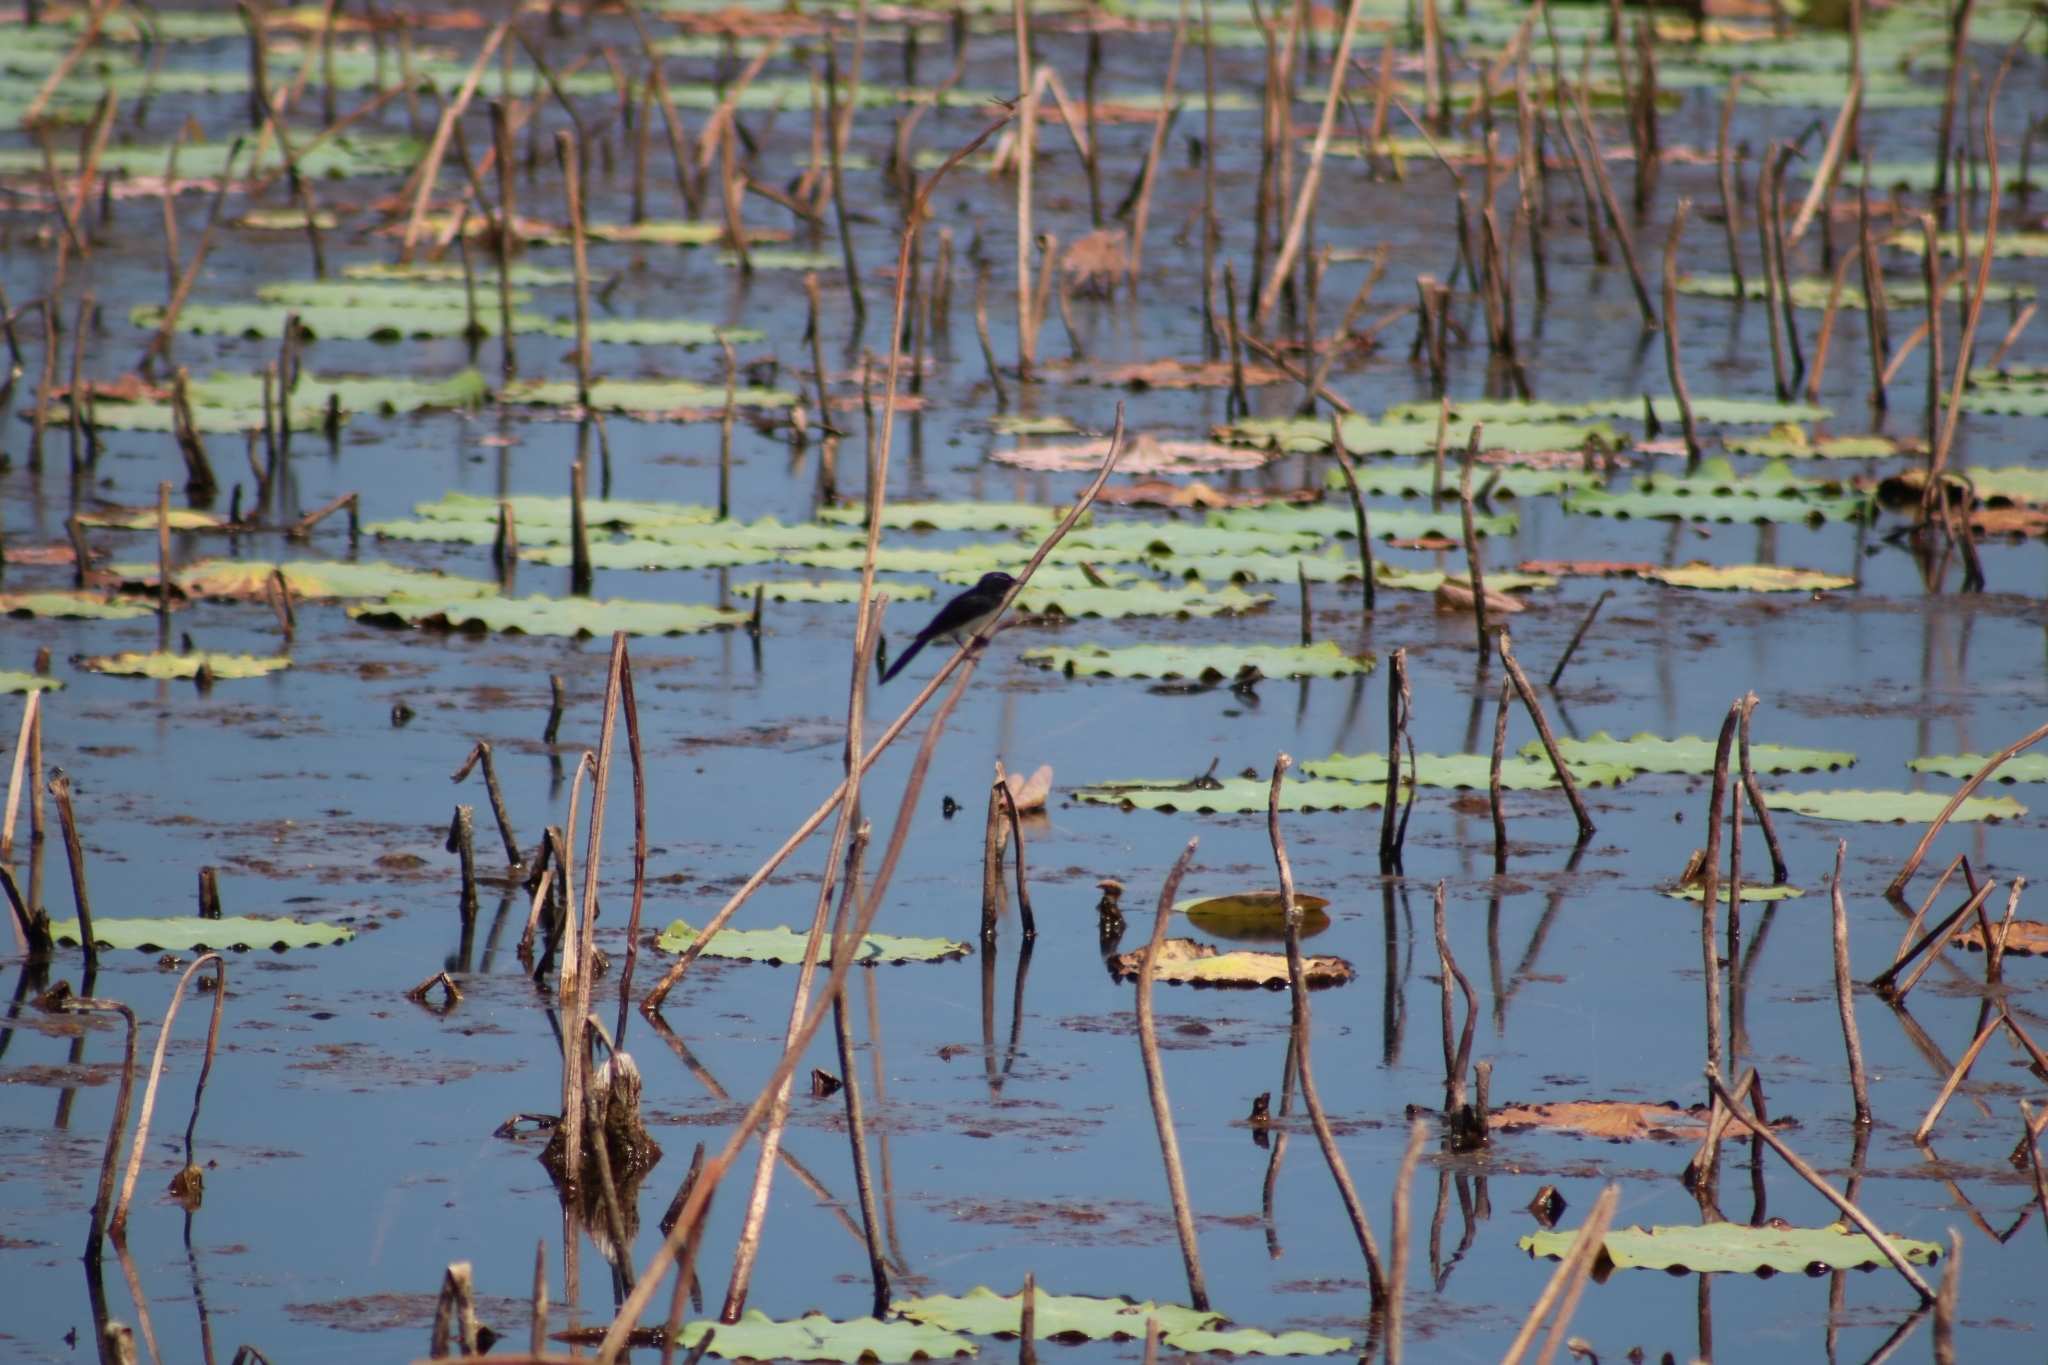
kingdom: Animalia
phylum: Chordata
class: Aves
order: Passeriformes
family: Rhipiduridae
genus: Rhipidura
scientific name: Rhipidura leucophrys
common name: Willie wagtail
